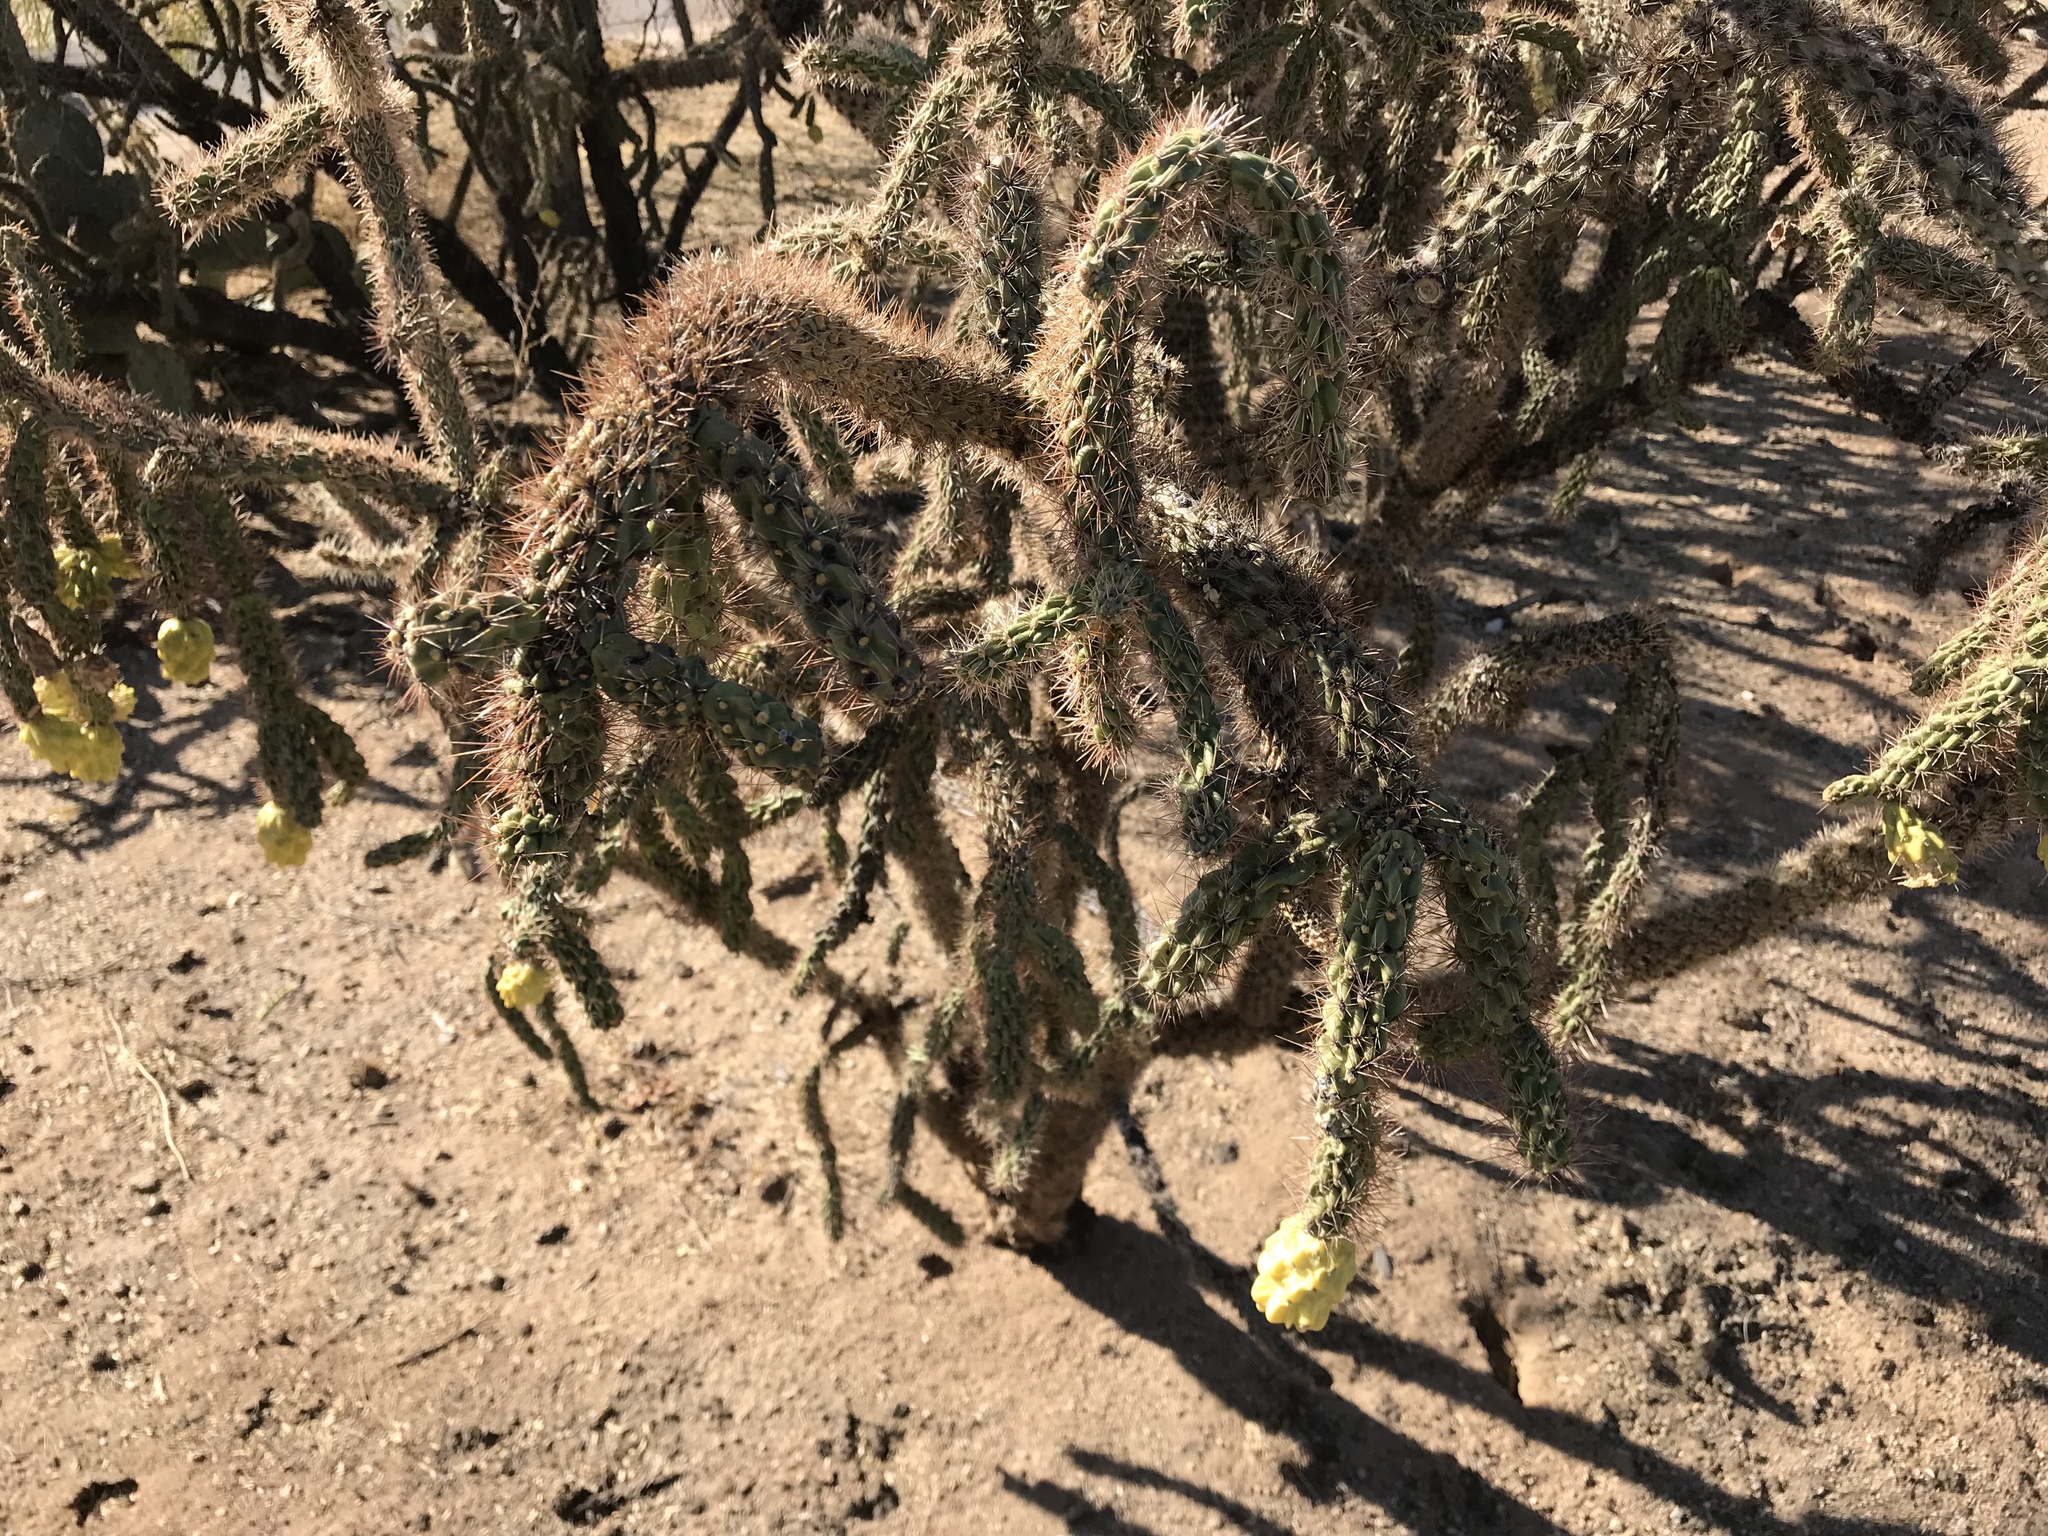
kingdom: Plantae
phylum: Tracheophyta
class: Magnoliopsida
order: Caryophyllales
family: Cactaceae
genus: Cylindropuntia
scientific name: Cylindropuntia imbricata
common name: Candelabrum cactus
